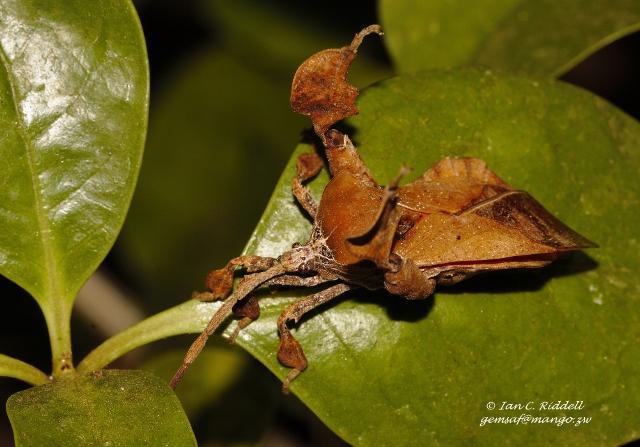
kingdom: Animalia
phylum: Arthropoda
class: Insecta
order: Hemiptera
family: Coreidae
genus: Petascelis
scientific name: Petascelis foliaceipes
